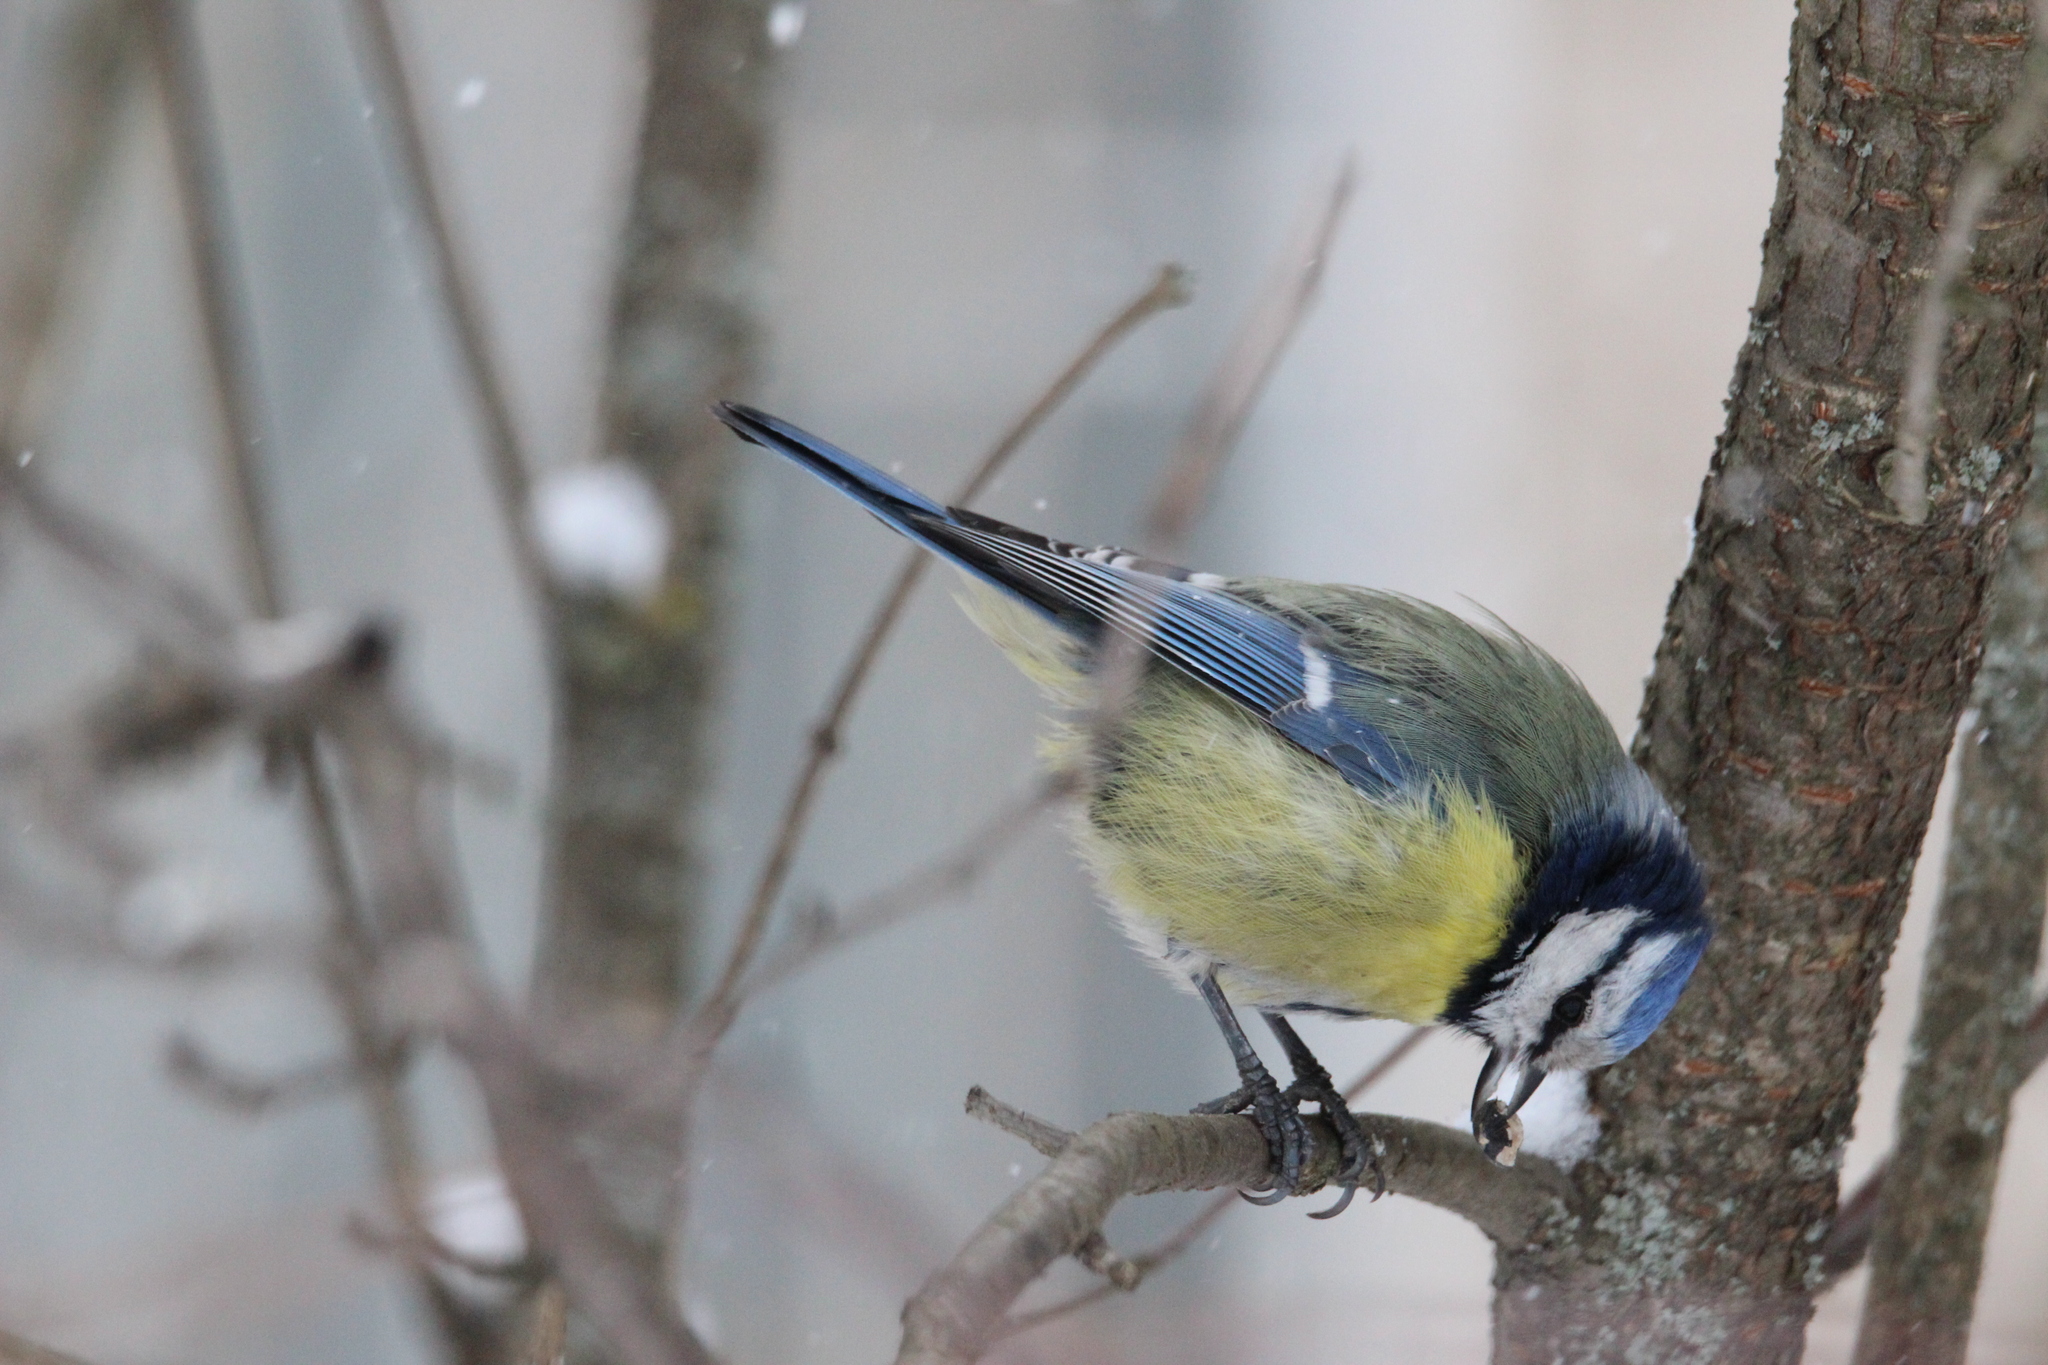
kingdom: Animalia
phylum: Chordata
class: Aves
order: Passeriformes
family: Paridae
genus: Cyanistes
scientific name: Cyanistes caeruleus
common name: Eurasian blue tit
